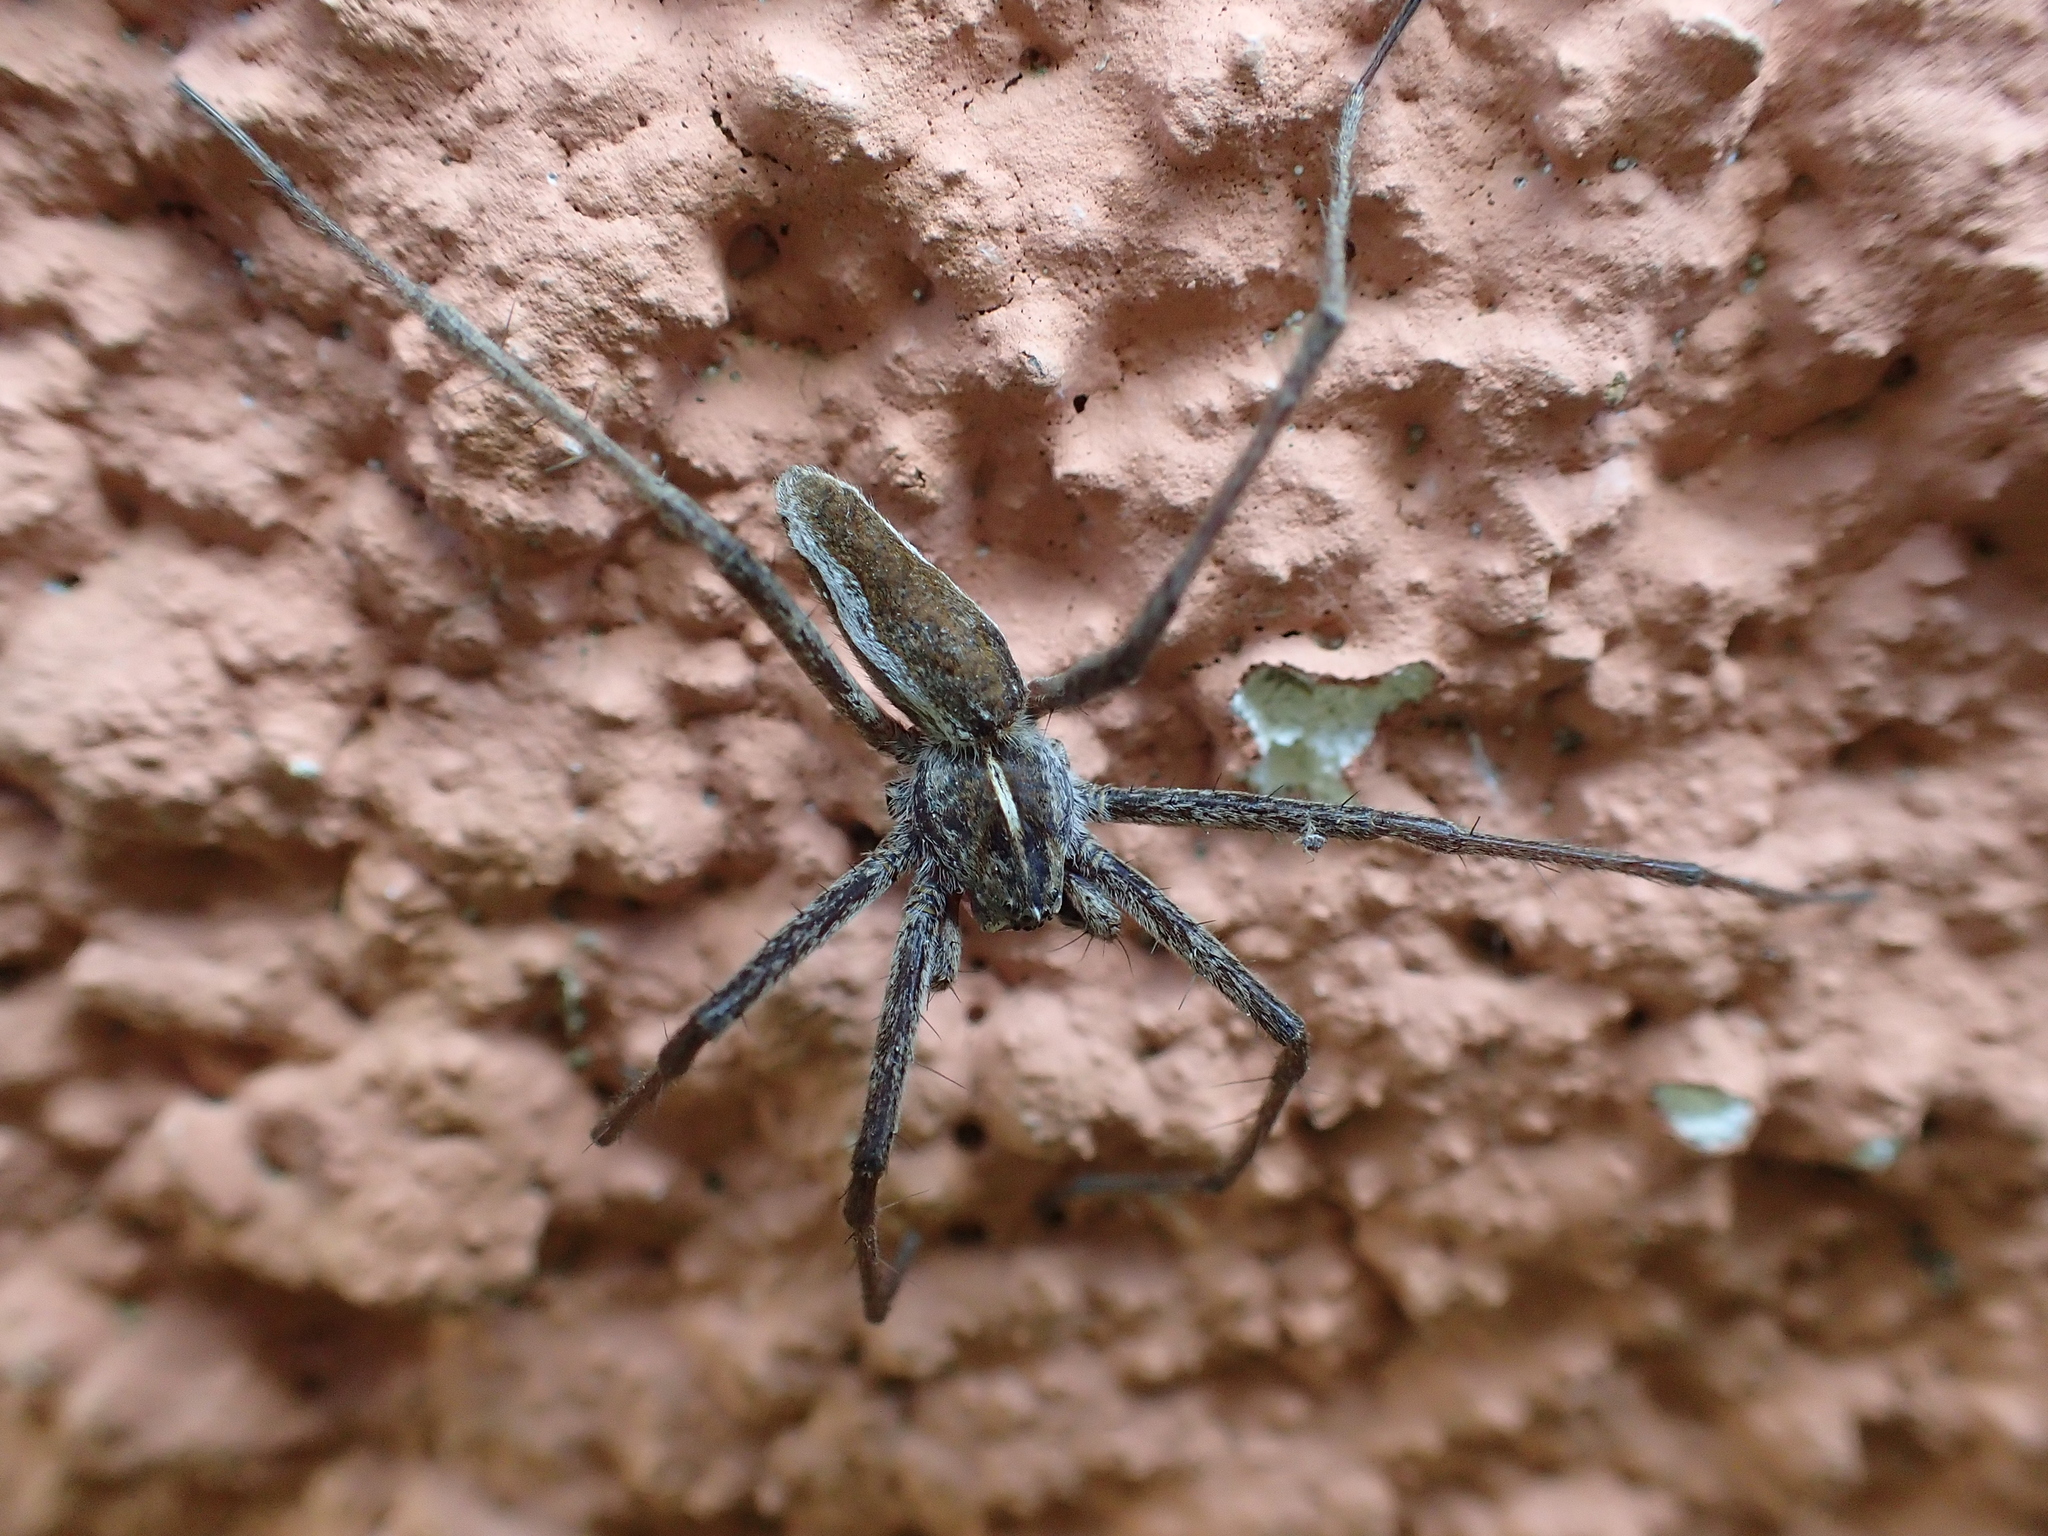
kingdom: Animalia
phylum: Arthropoda
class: Arachnida
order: Araneae
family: Pisauridae
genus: Pisaura
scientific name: Pisaura mirabilis
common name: Tent spider
